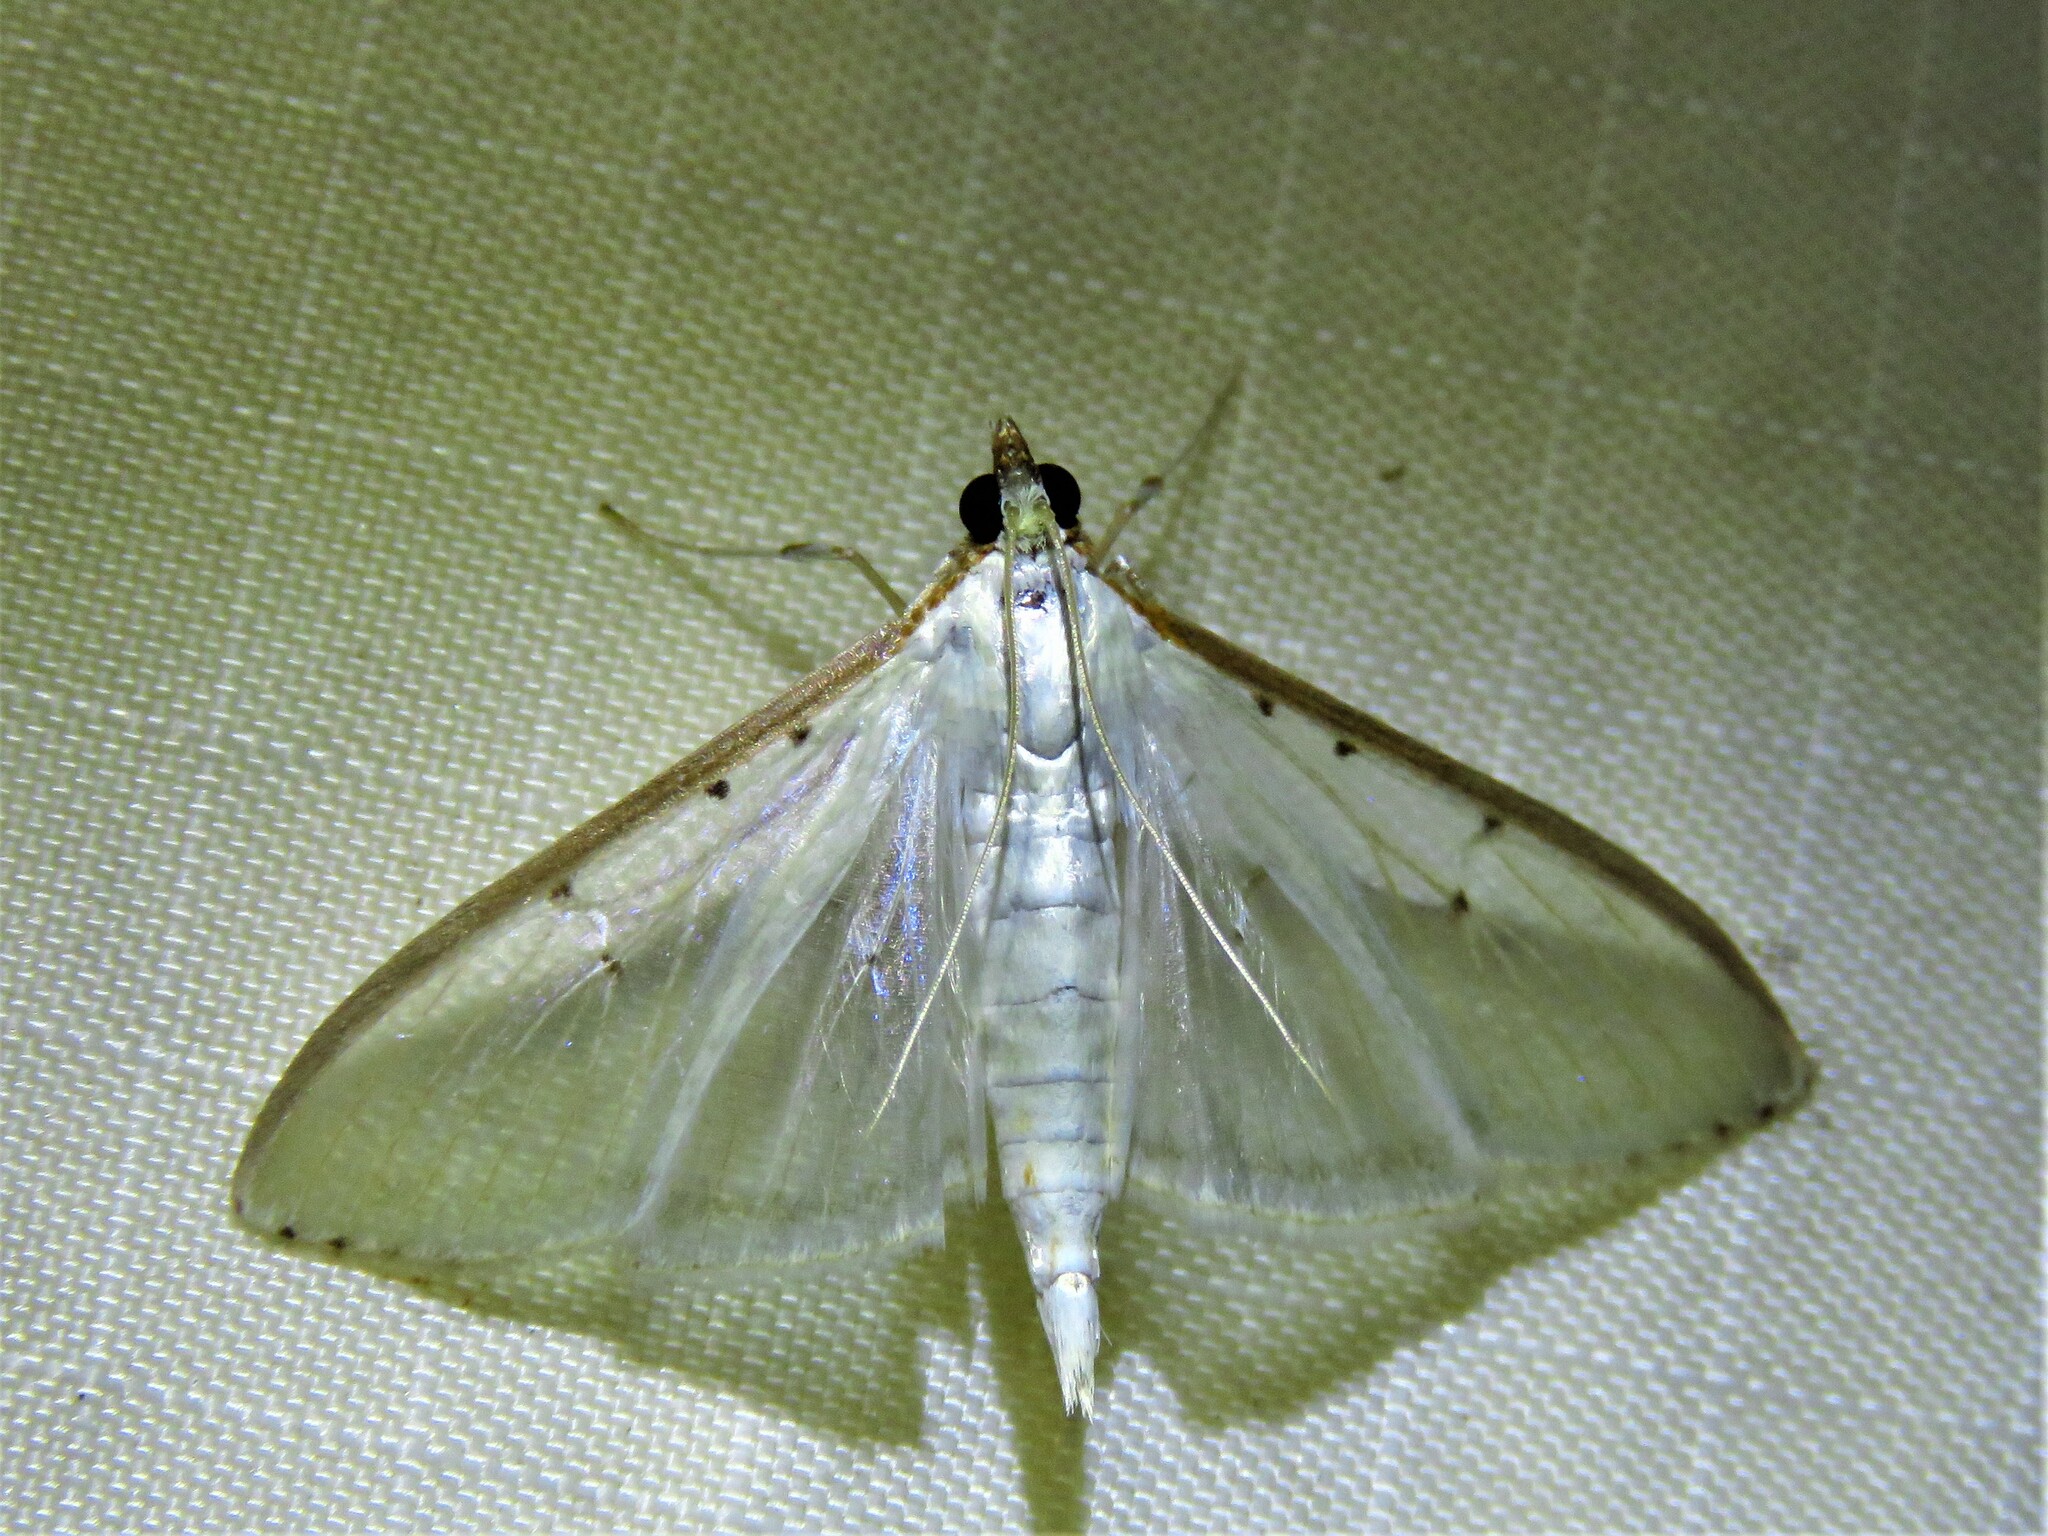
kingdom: Animalia
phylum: Arthropoda
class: Insecta
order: Lepidoptera
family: Crambidae
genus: Palpita
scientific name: Palpita quadristigmalis
